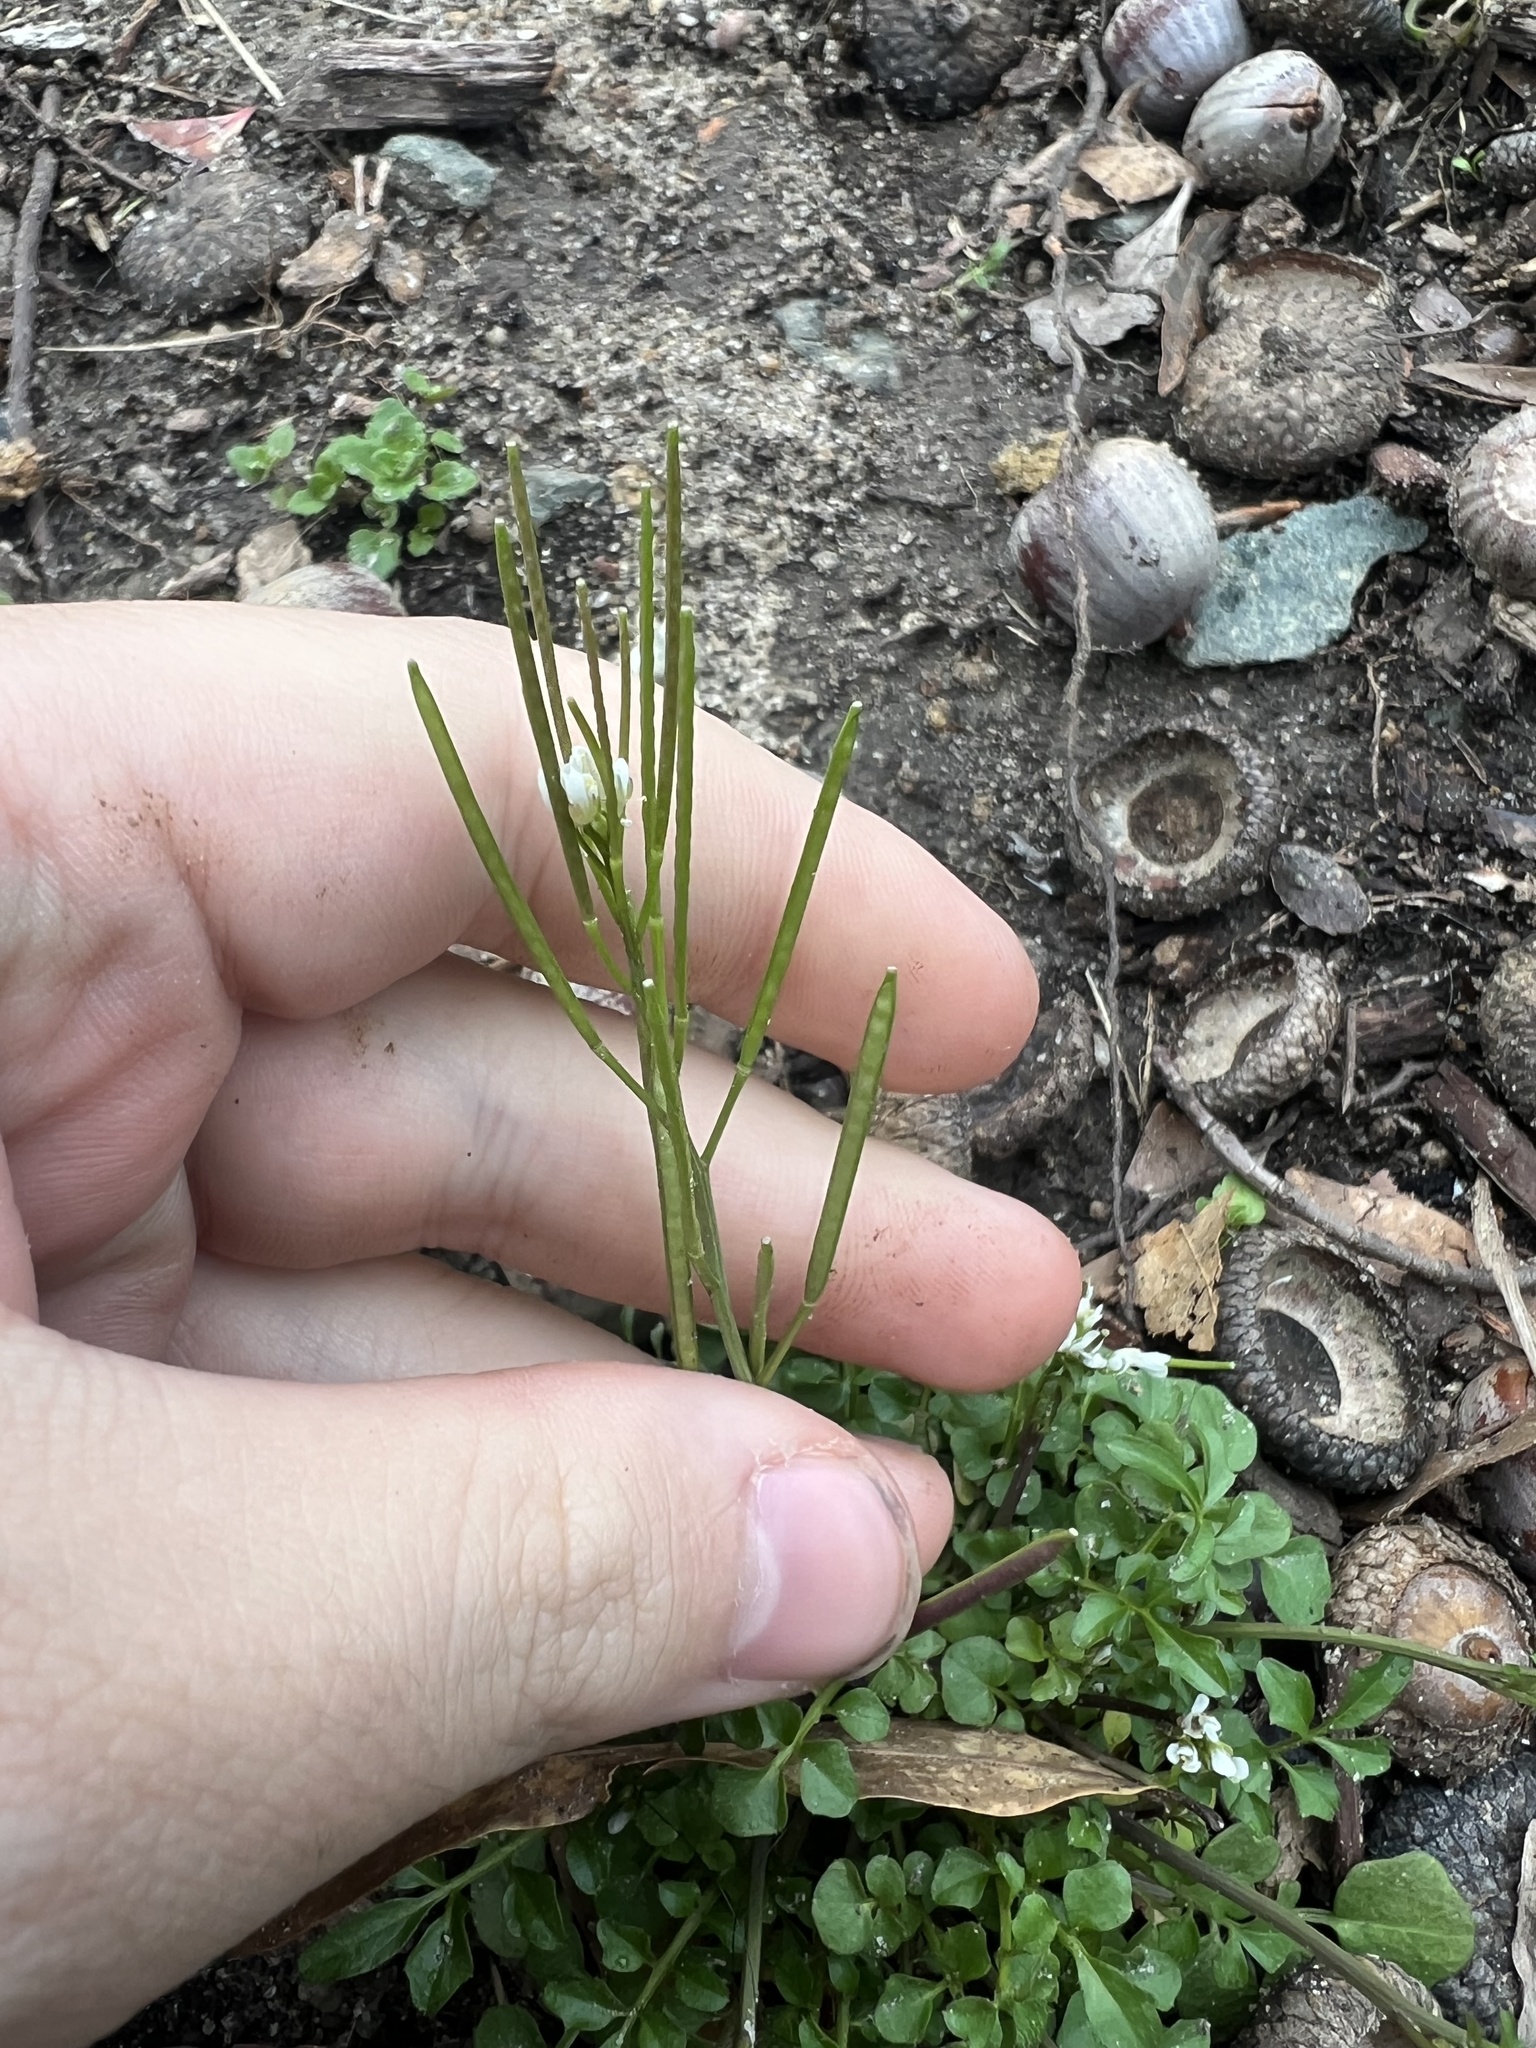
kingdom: Plantae
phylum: Tracheophyta
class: Magnoliopsida
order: Brassicales
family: Brassicaceae
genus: Cardamine
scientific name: Cardamine hirsuta
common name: Hairy bittercress
